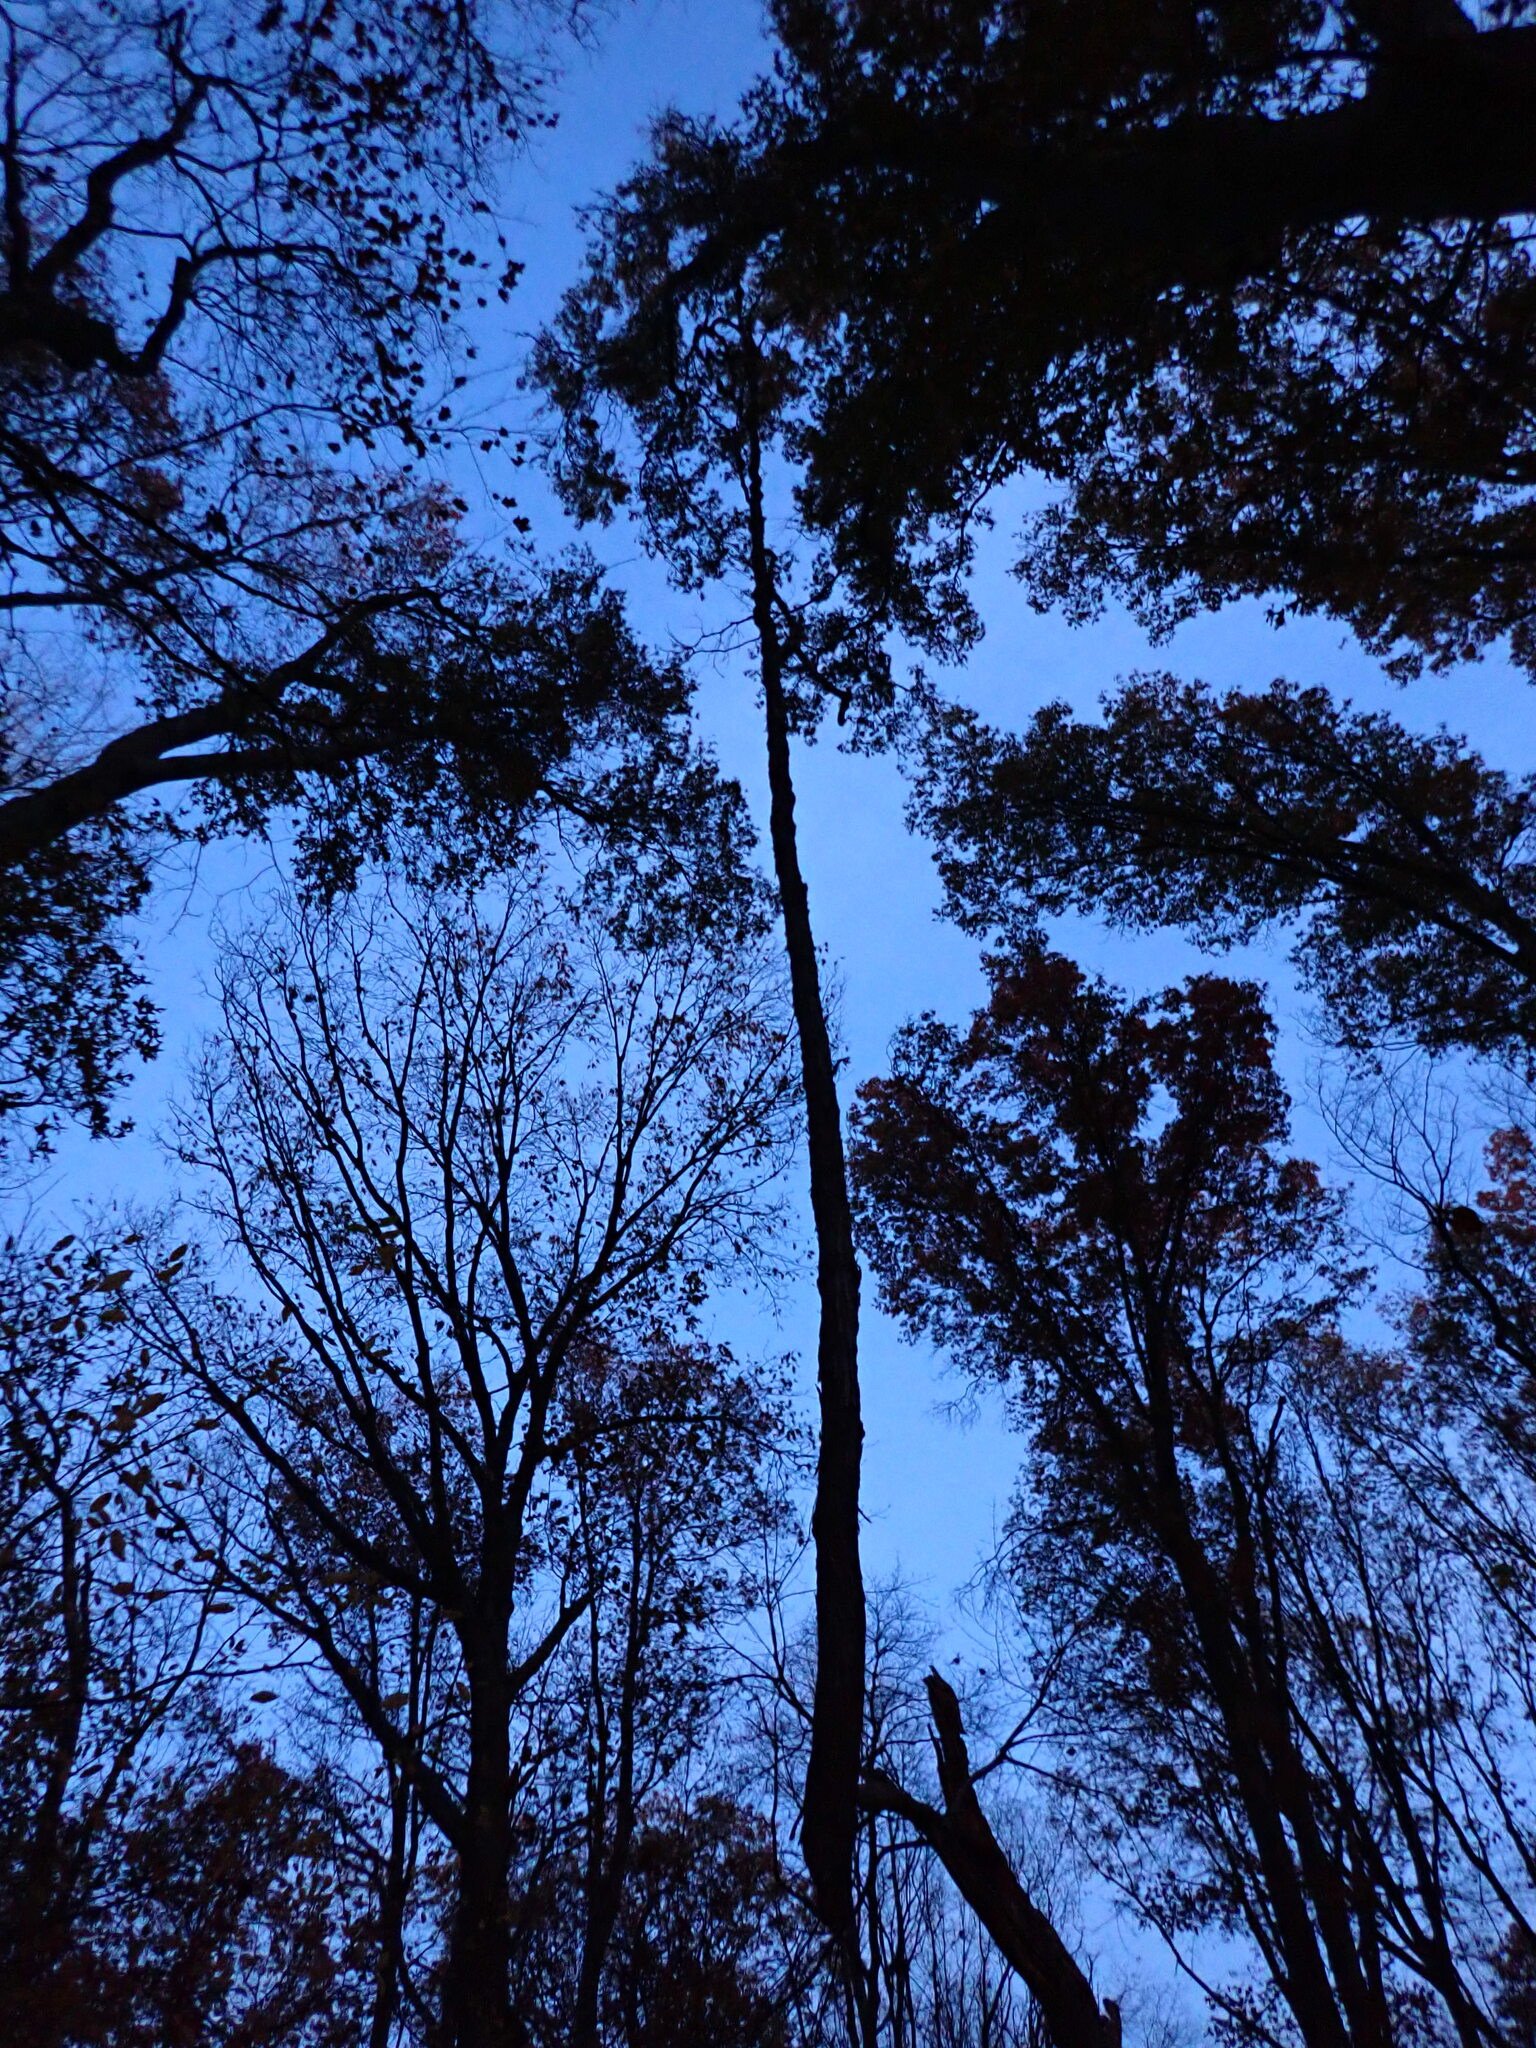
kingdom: Plantae
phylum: Tracheophyta
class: Magnoliopsida
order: Sapindales
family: Anacardiaceae
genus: Toxicodendron
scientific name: Toxicodendron radicans
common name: Poison ivy
